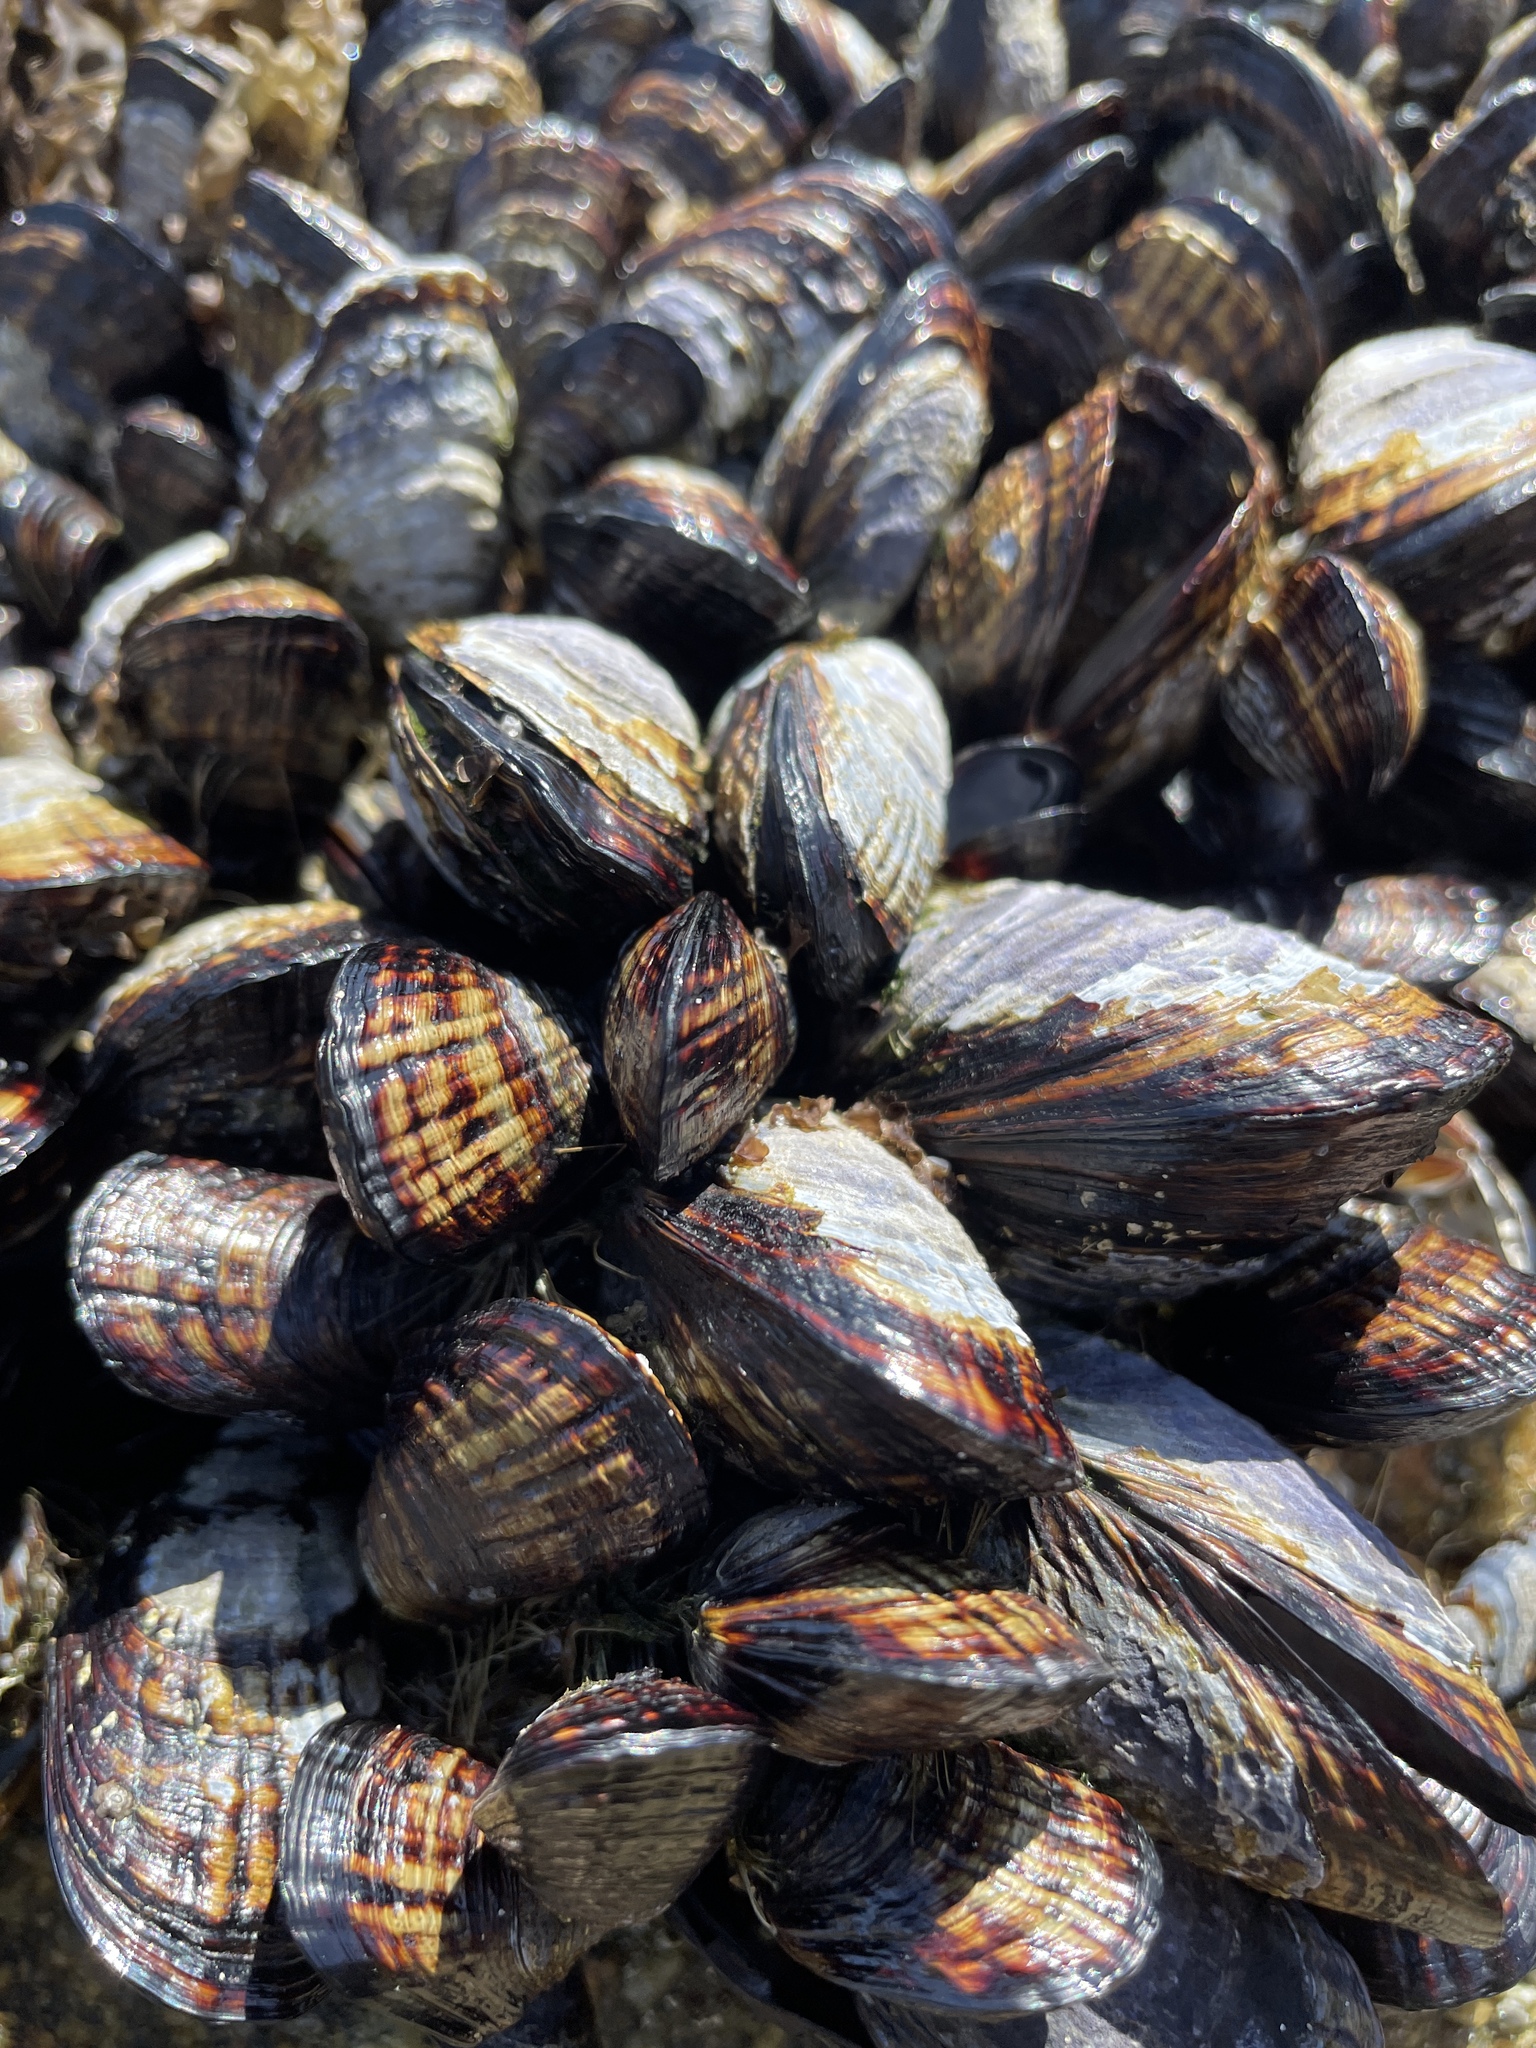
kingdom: Animalia
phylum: Mollusca
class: Bivalvia
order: Mytilida
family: Mytilidae
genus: Mytilus
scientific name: Mytilus californianus
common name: California mussel
